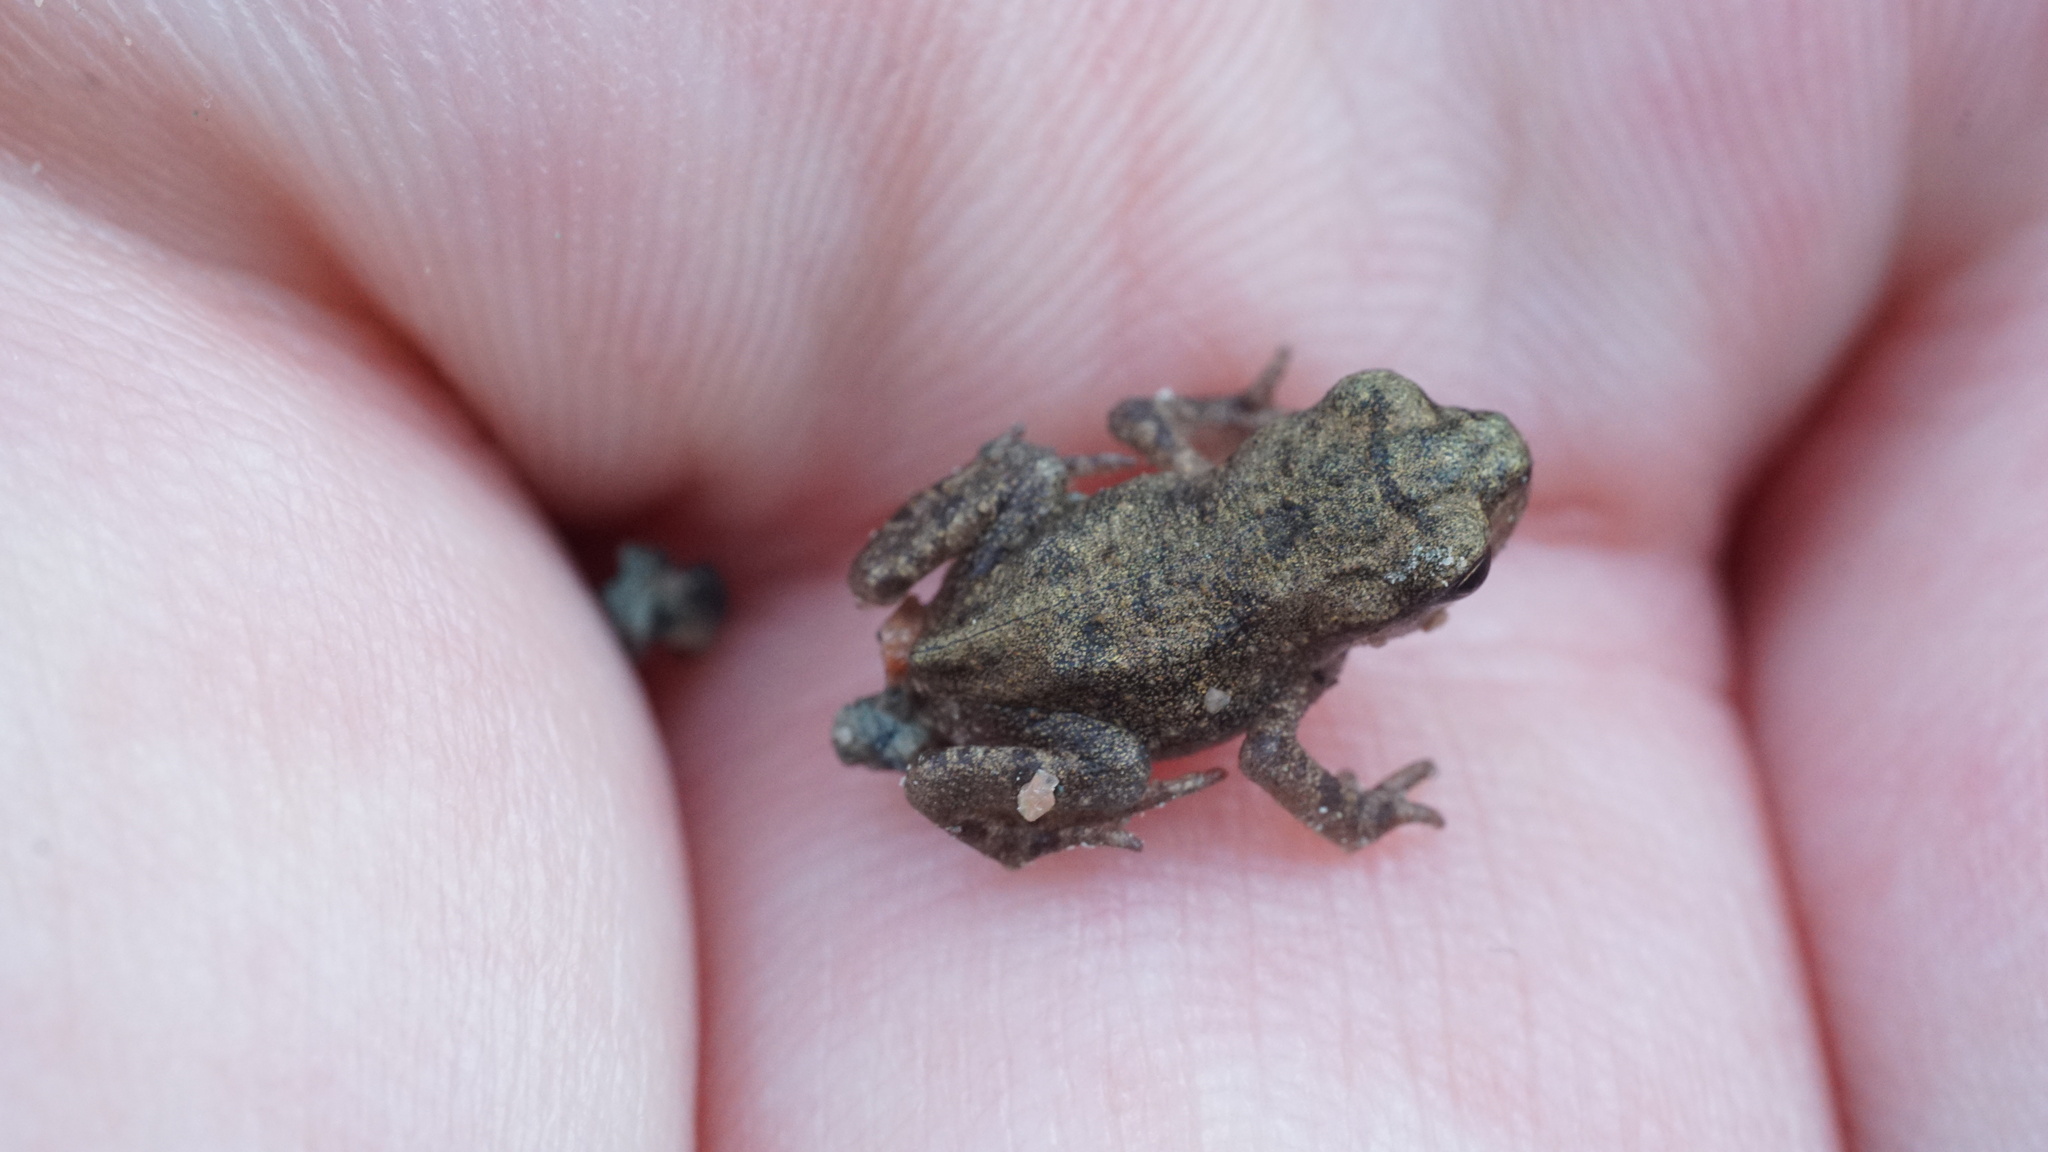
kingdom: Animalia
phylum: Chordata
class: Amphibia
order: Anura
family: Bufonidae
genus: Bufo
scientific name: Bufo bufo
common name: Common toad
